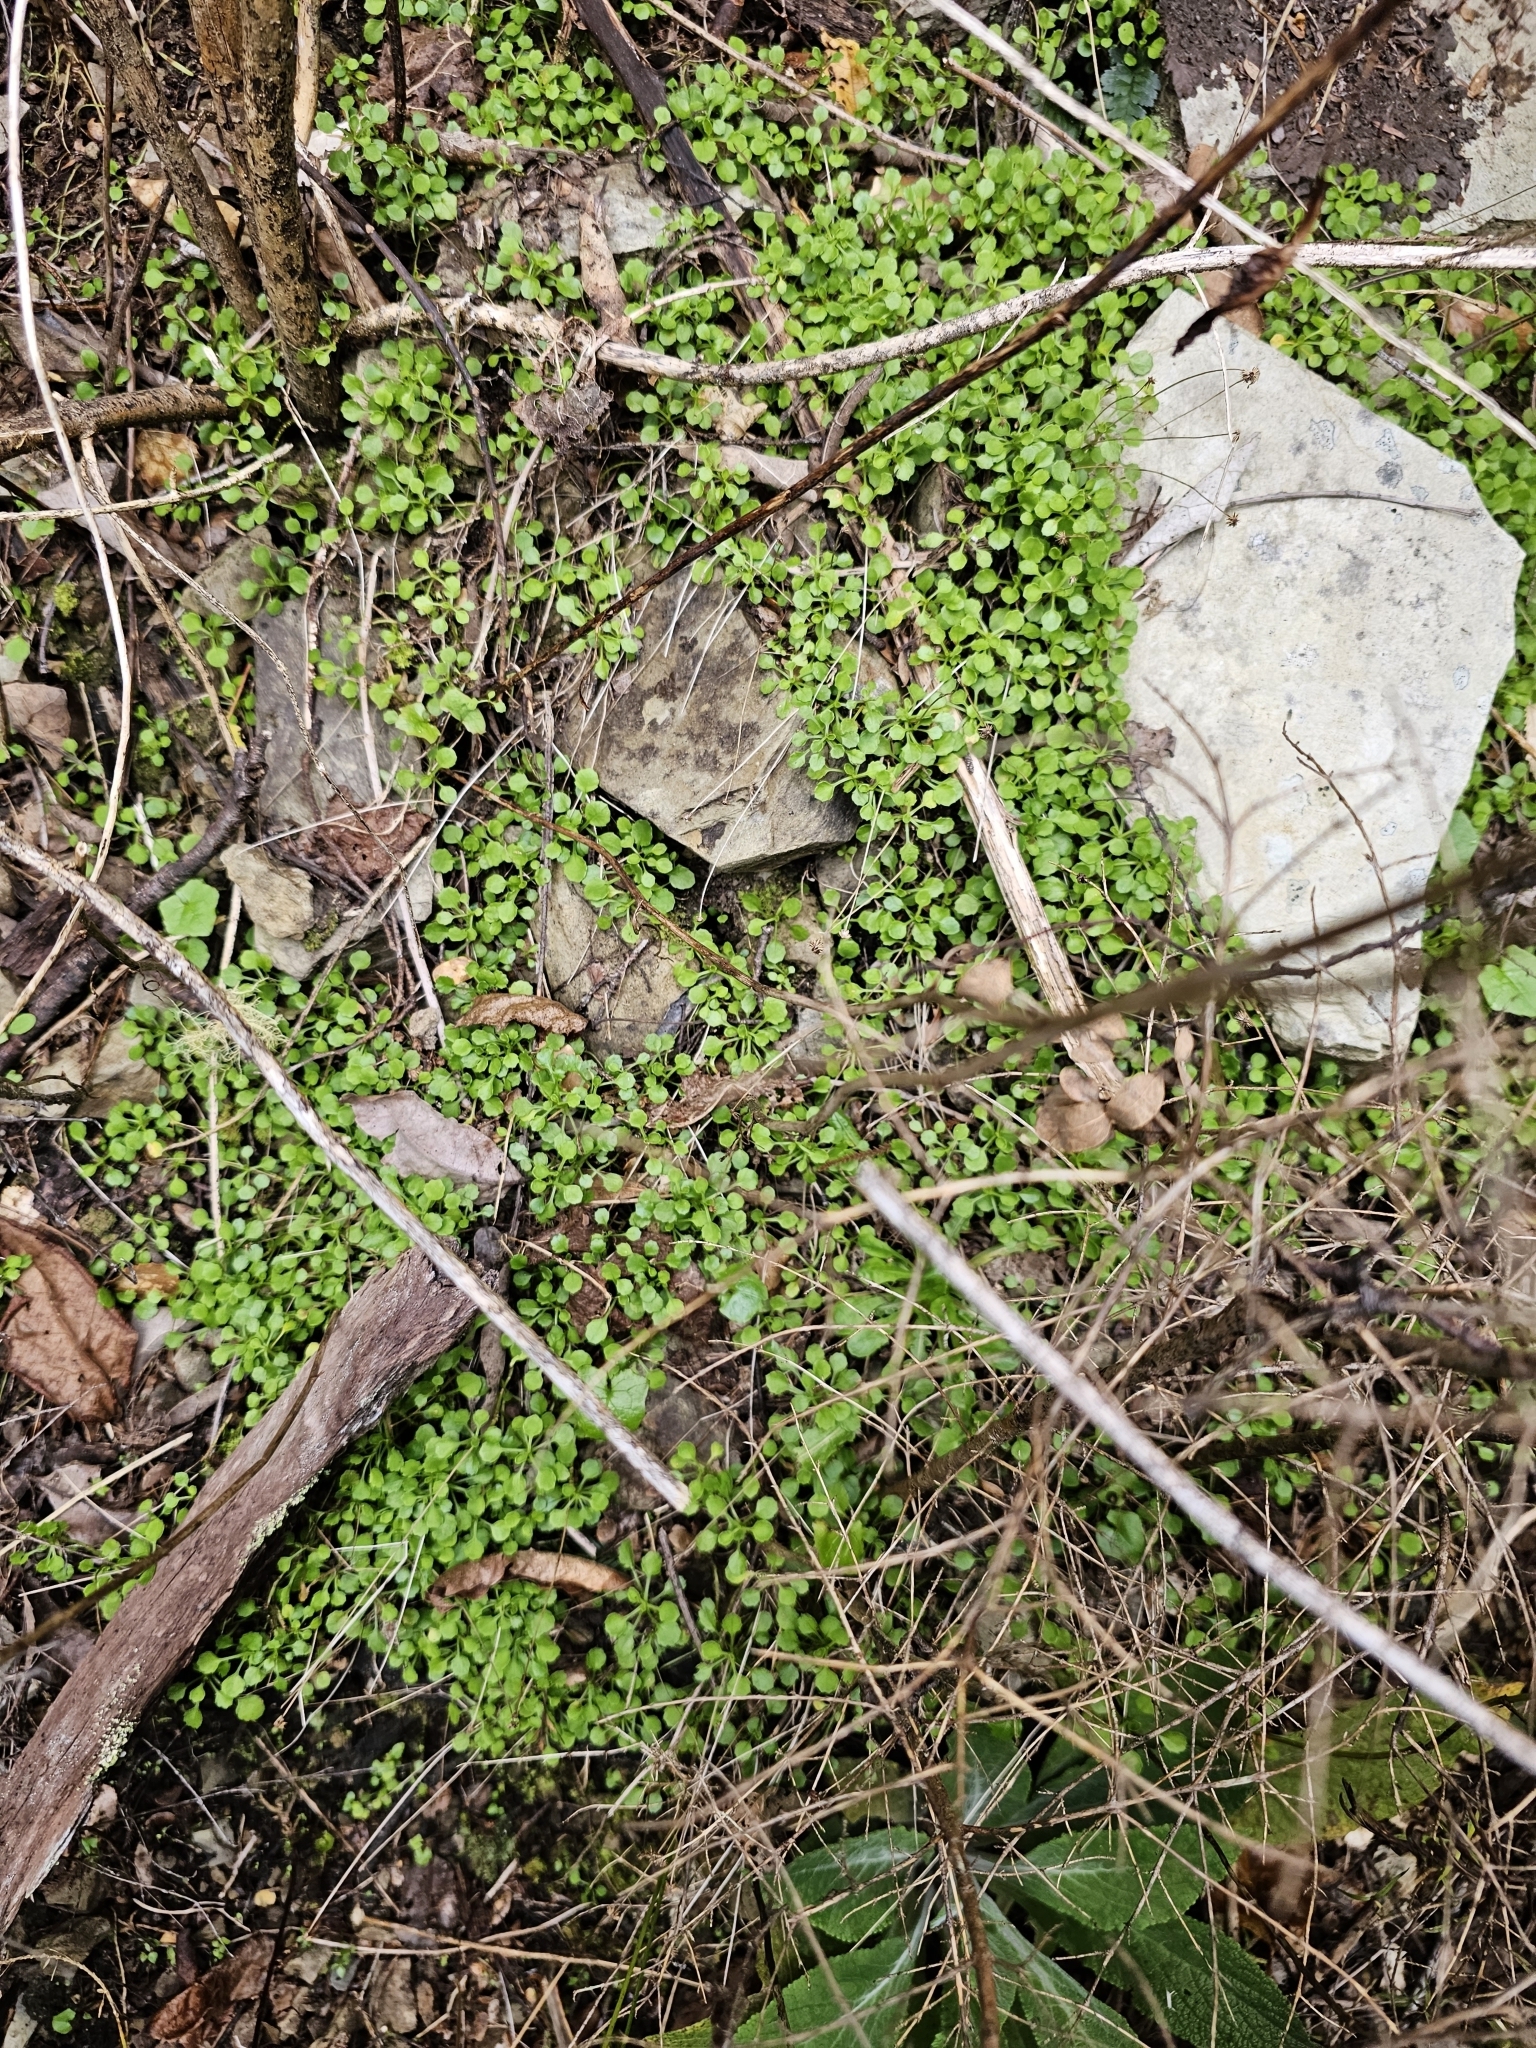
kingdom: Plantae
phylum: Tracheophyta
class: Magnoliopsida
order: Asterales
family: Asteraceae
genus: Lagenophora
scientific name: Lagenophora pumila
